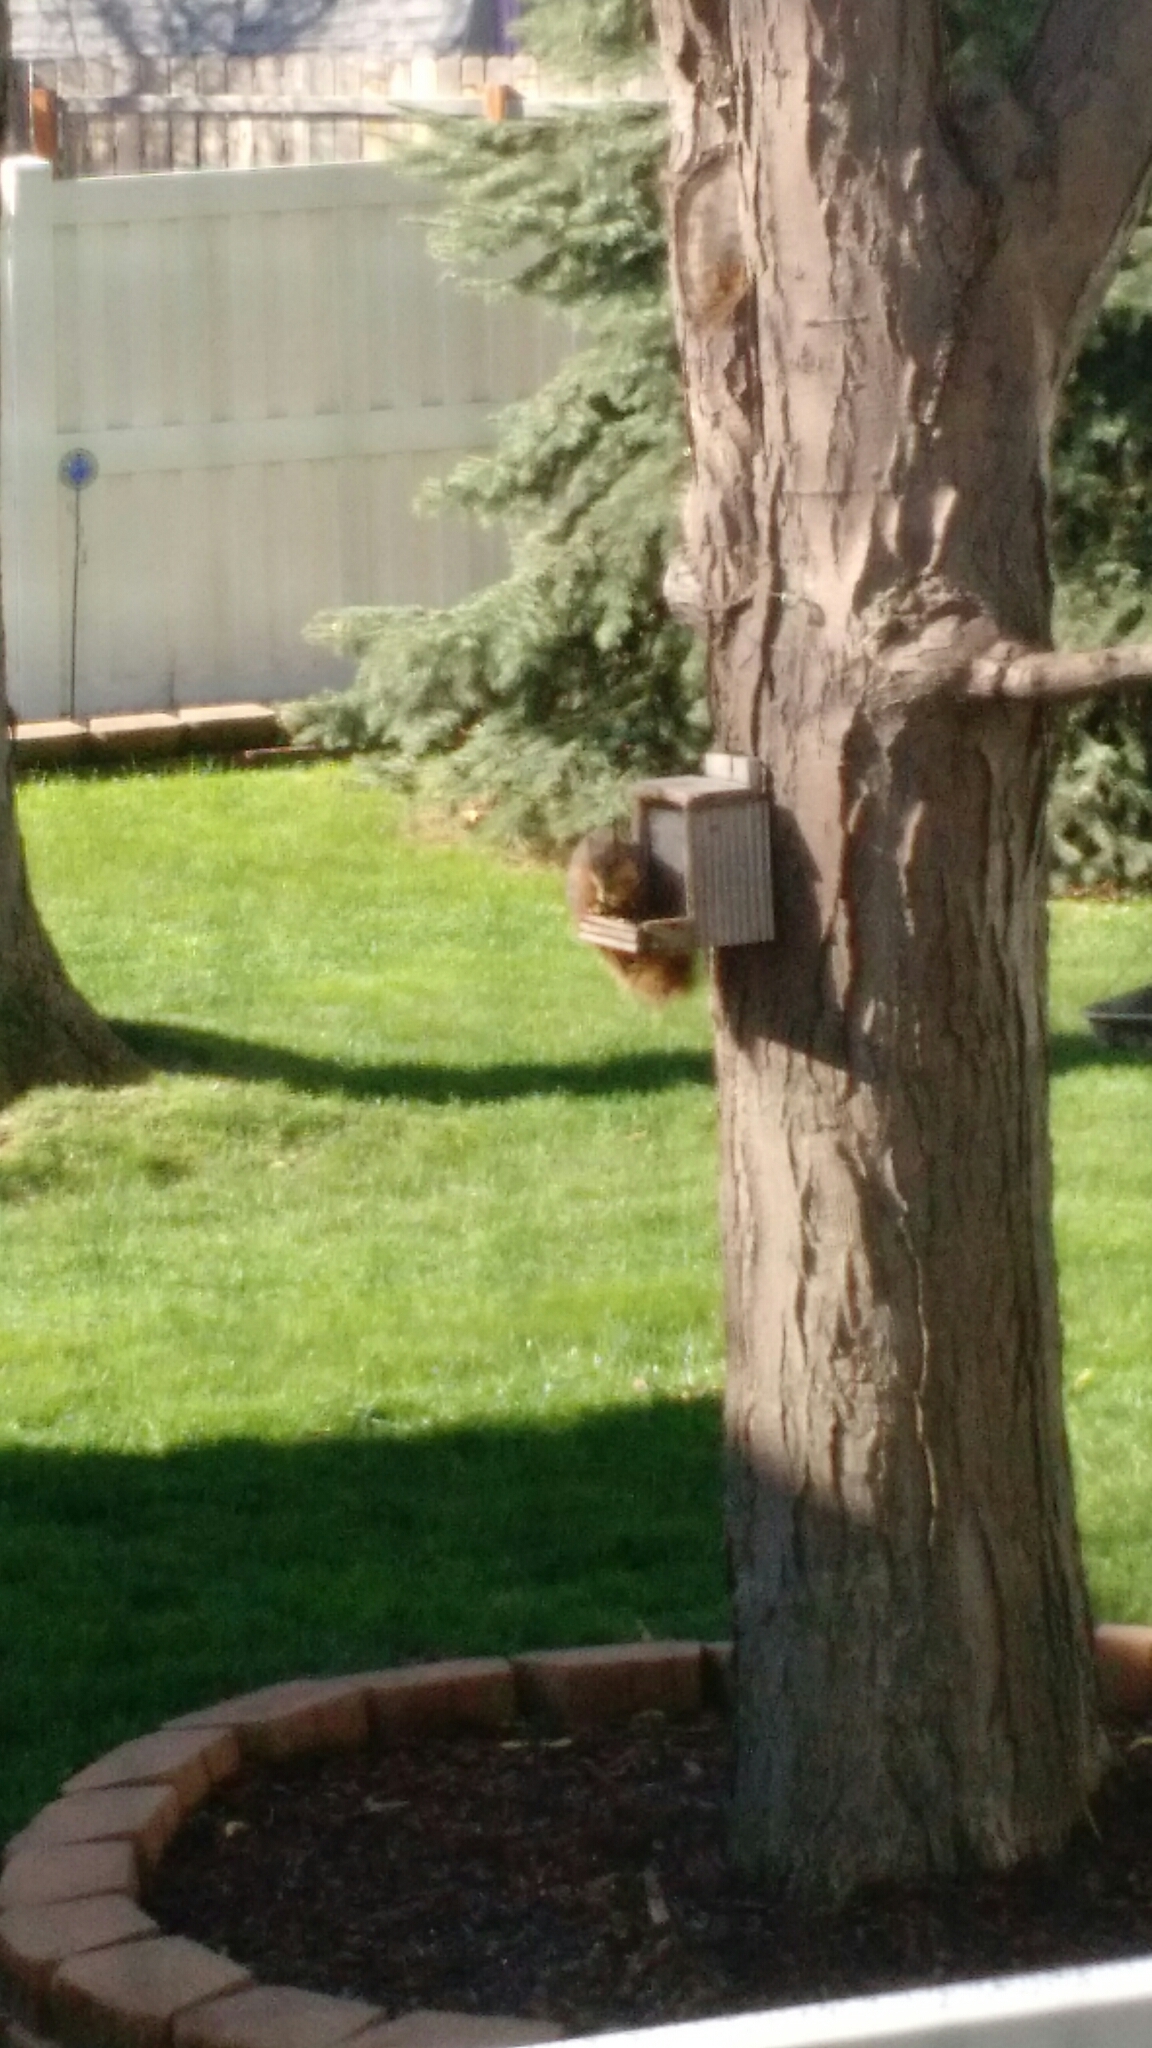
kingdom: Animalia
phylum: Chordata
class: Mammalia
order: Rodentia
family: Sciuridae
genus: Sciurus
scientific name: Sciurus niger
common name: Fox squirrel
